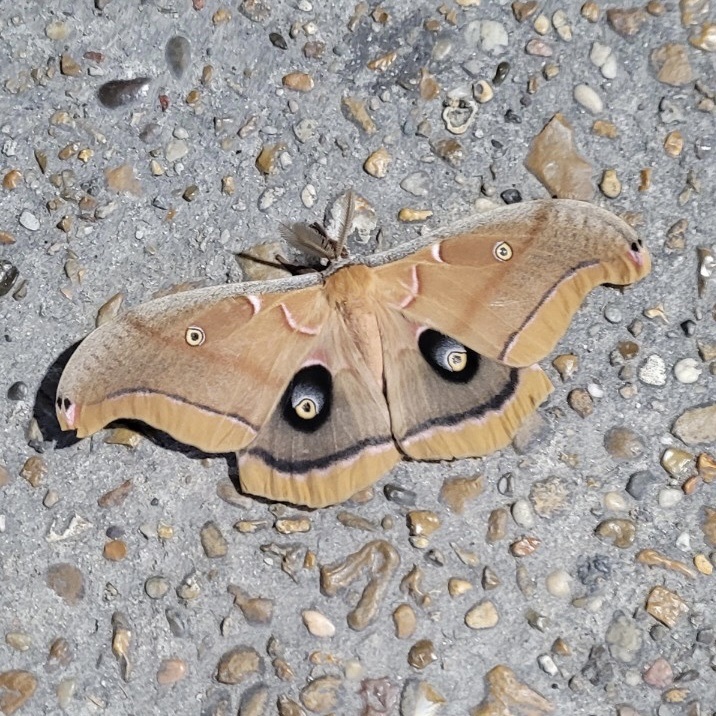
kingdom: Animalia
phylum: Arthropoda
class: Insecta
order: Lepidoptera
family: Saturniidae
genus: Antheraea
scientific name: Antheraea polyphemus
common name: Polyphemus moth
